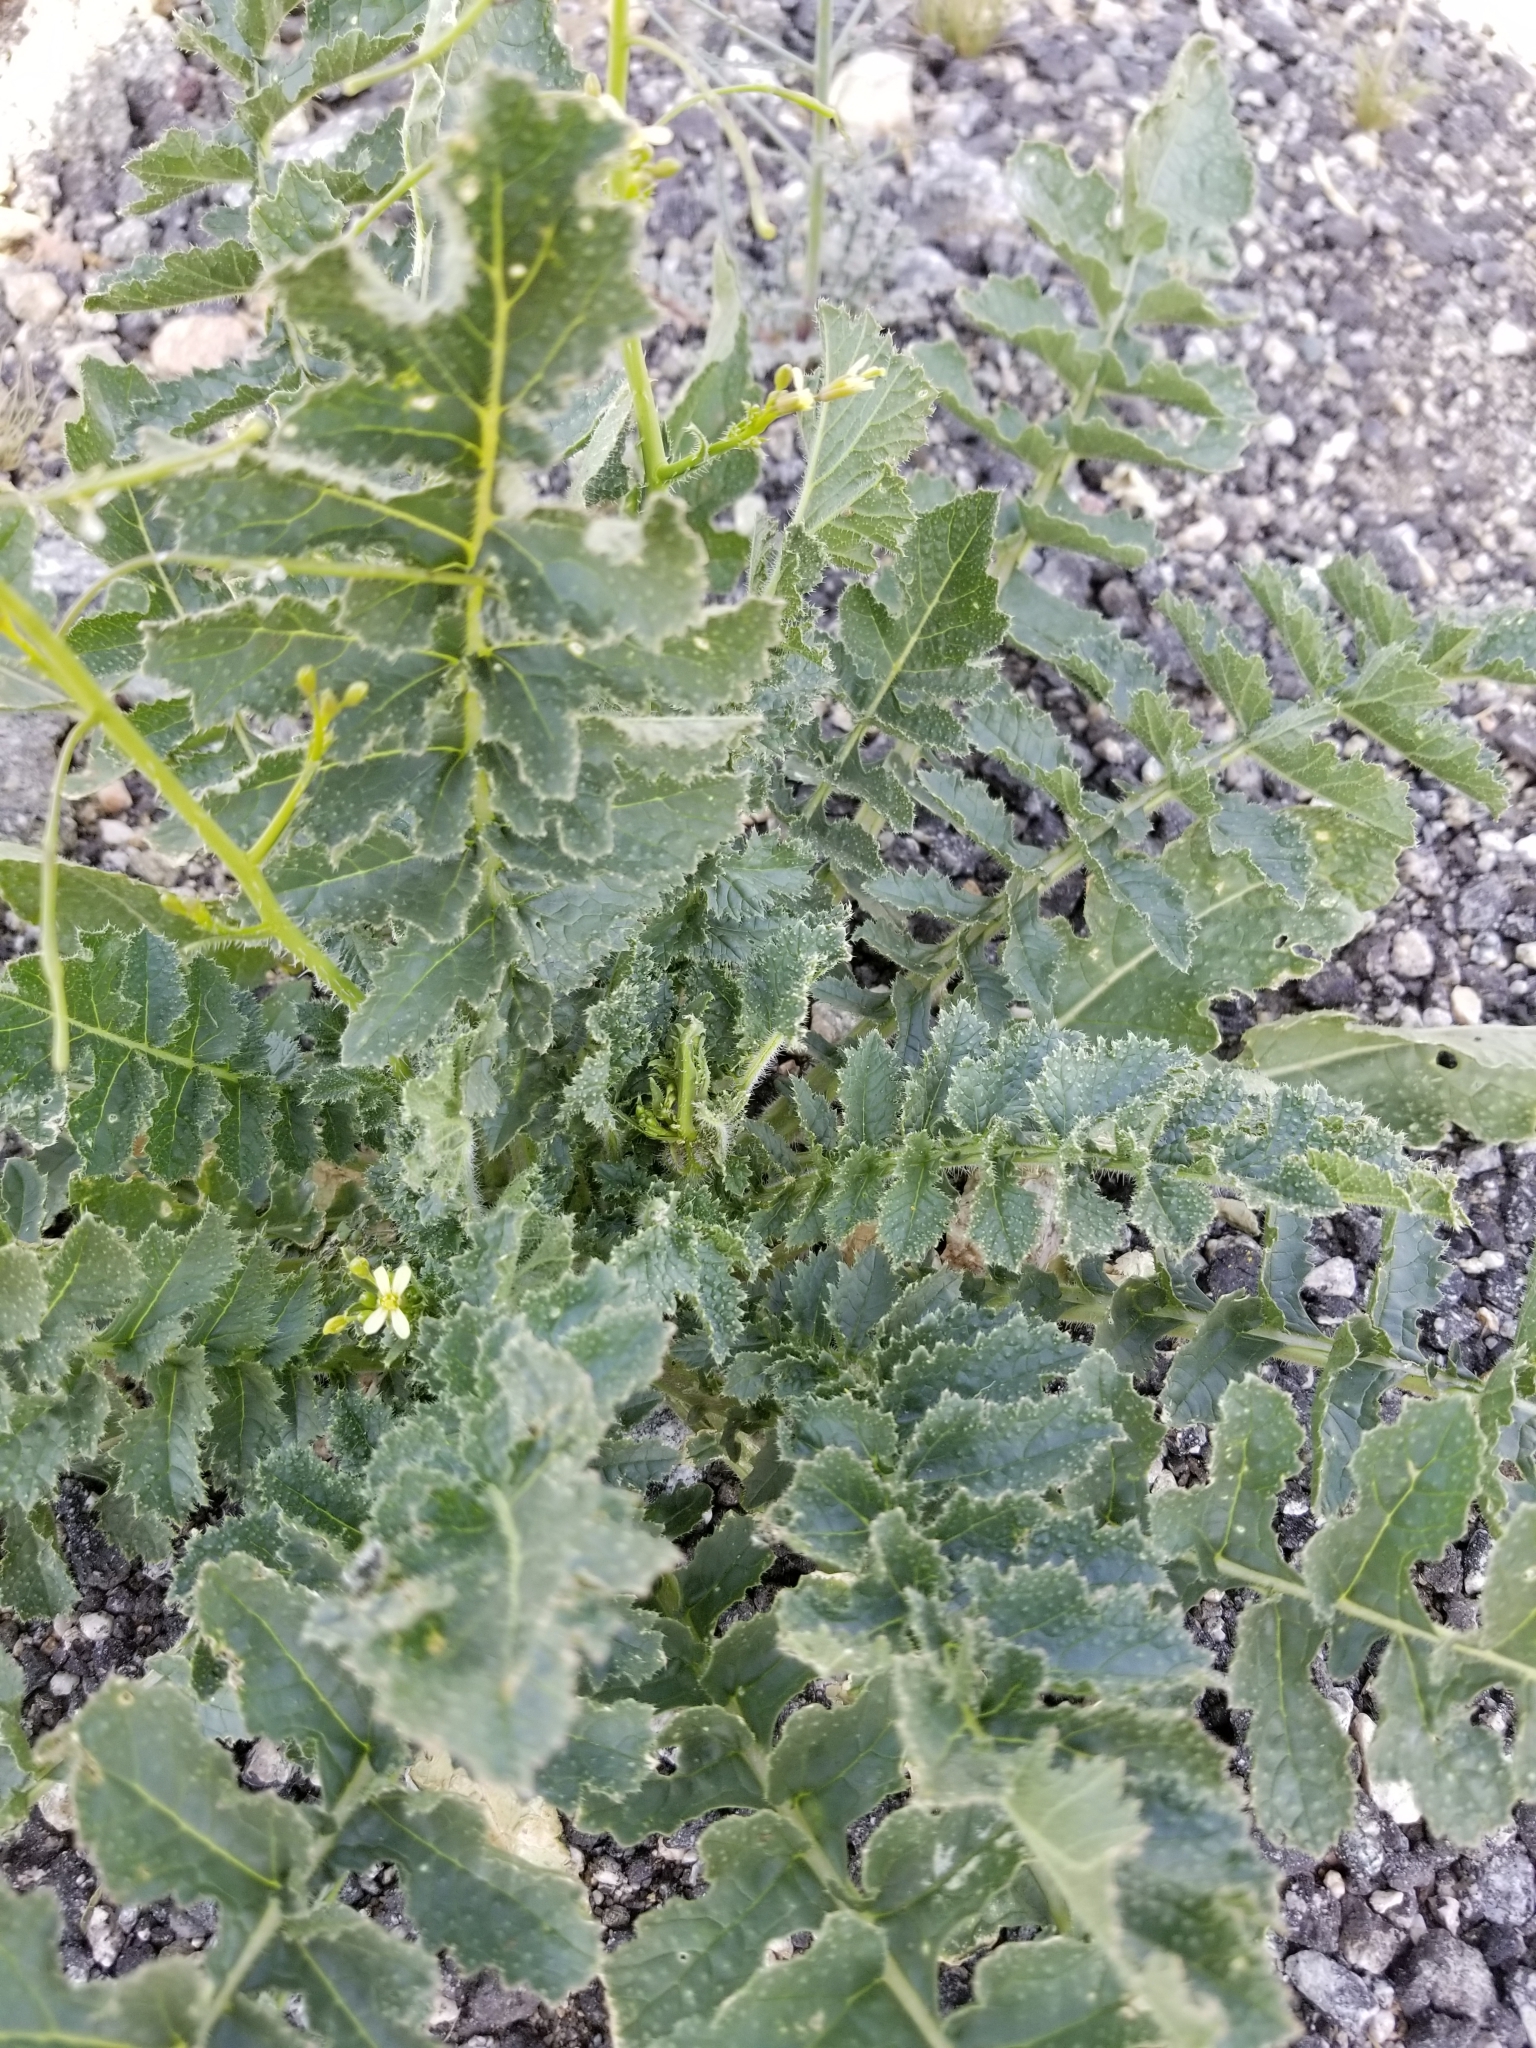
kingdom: Plantae
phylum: Tracheophyta
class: Magnoliopsida
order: Brassicales
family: Brassicaceae
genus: Brassica
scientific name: Brassica tournefortii
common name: Pale cabbage
